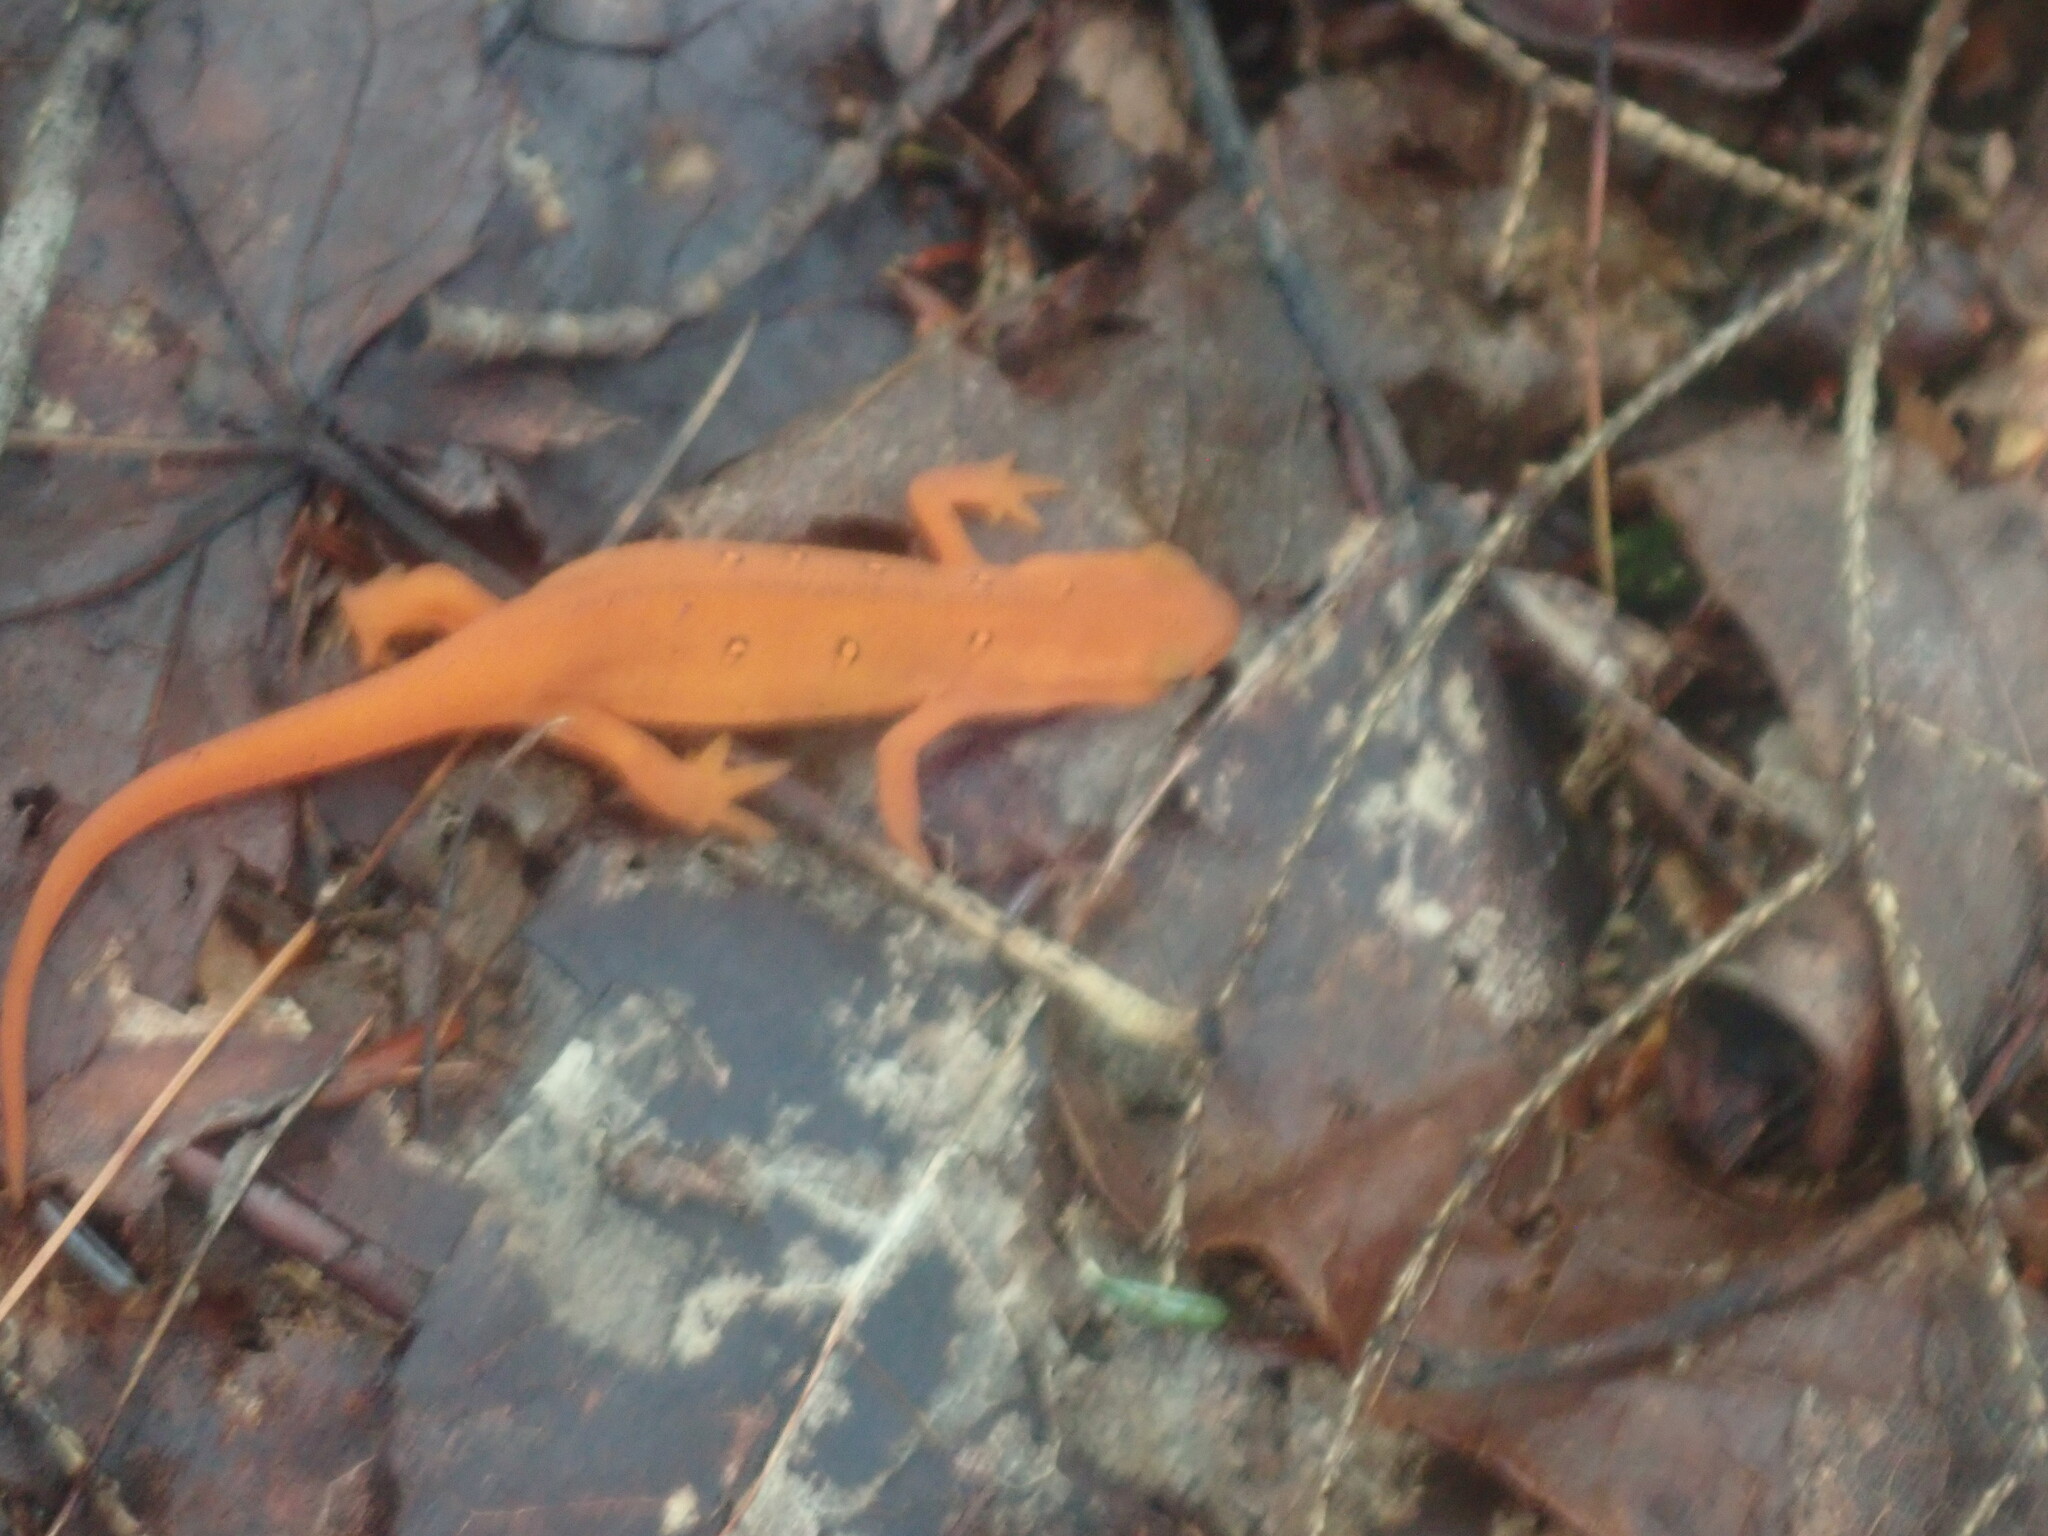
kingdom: Animalia
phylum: Chordata
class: Amphibia
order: Caudata
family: Salamandridae
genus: Notophthalmus
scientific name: Notophthalmus viridescens
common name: Eastern newt
